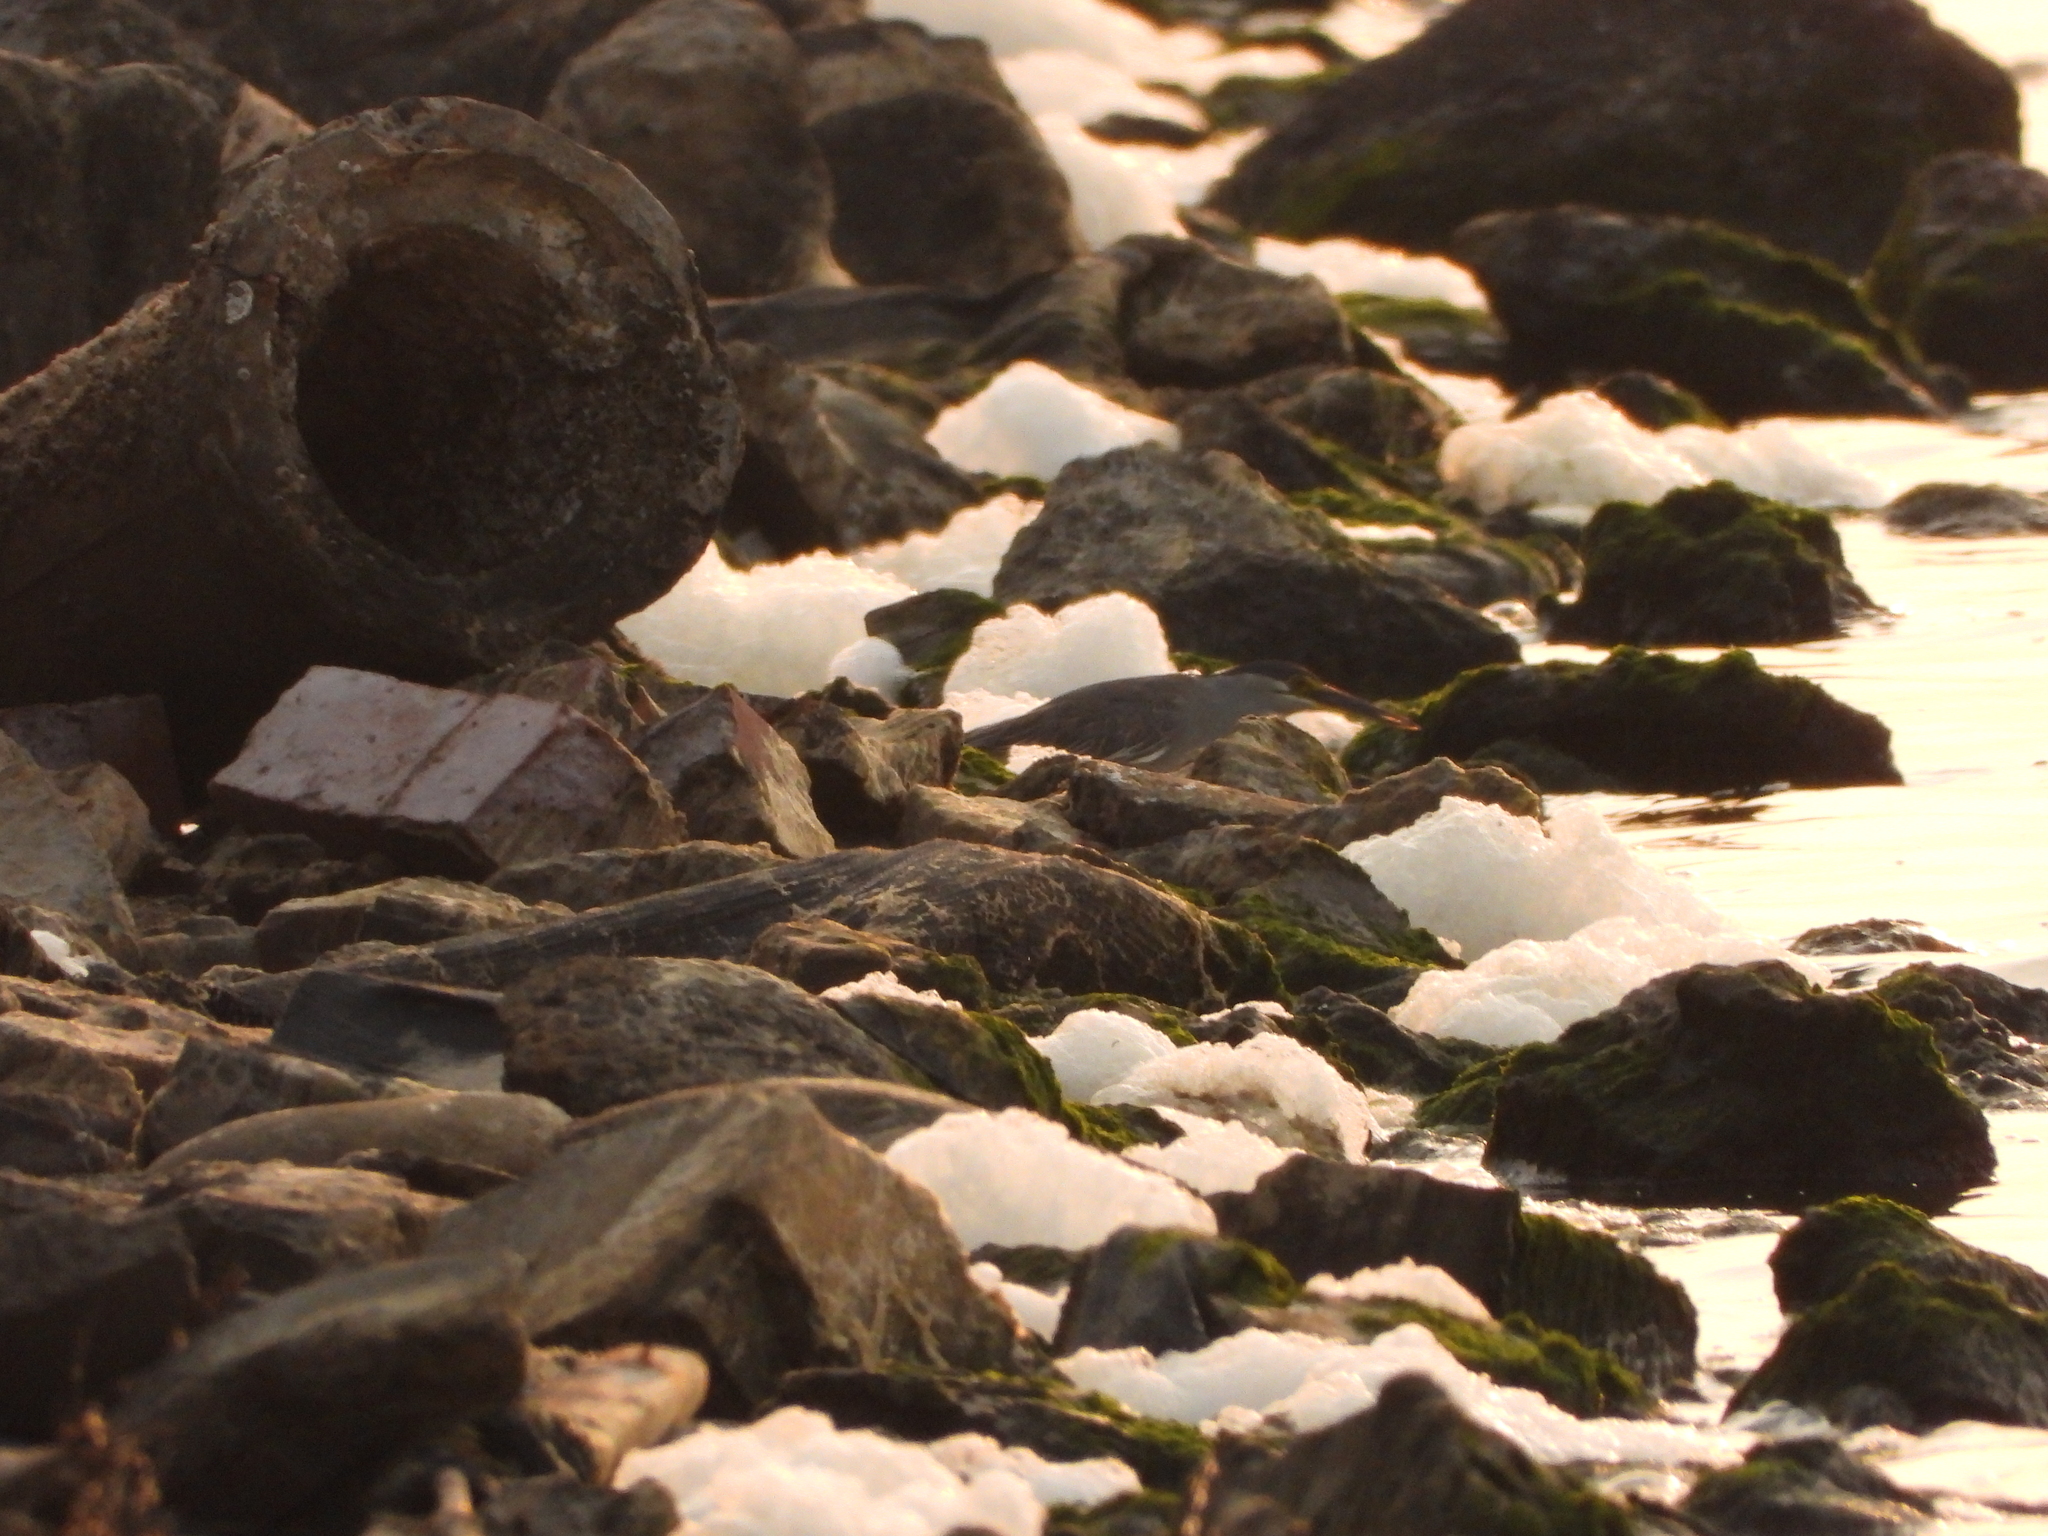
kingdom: Animalia
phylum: Chordata
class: Aves
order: Pelecaniformes
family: Ardeidae
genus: Butorides
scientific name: Butorides striata
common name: Striated heron
